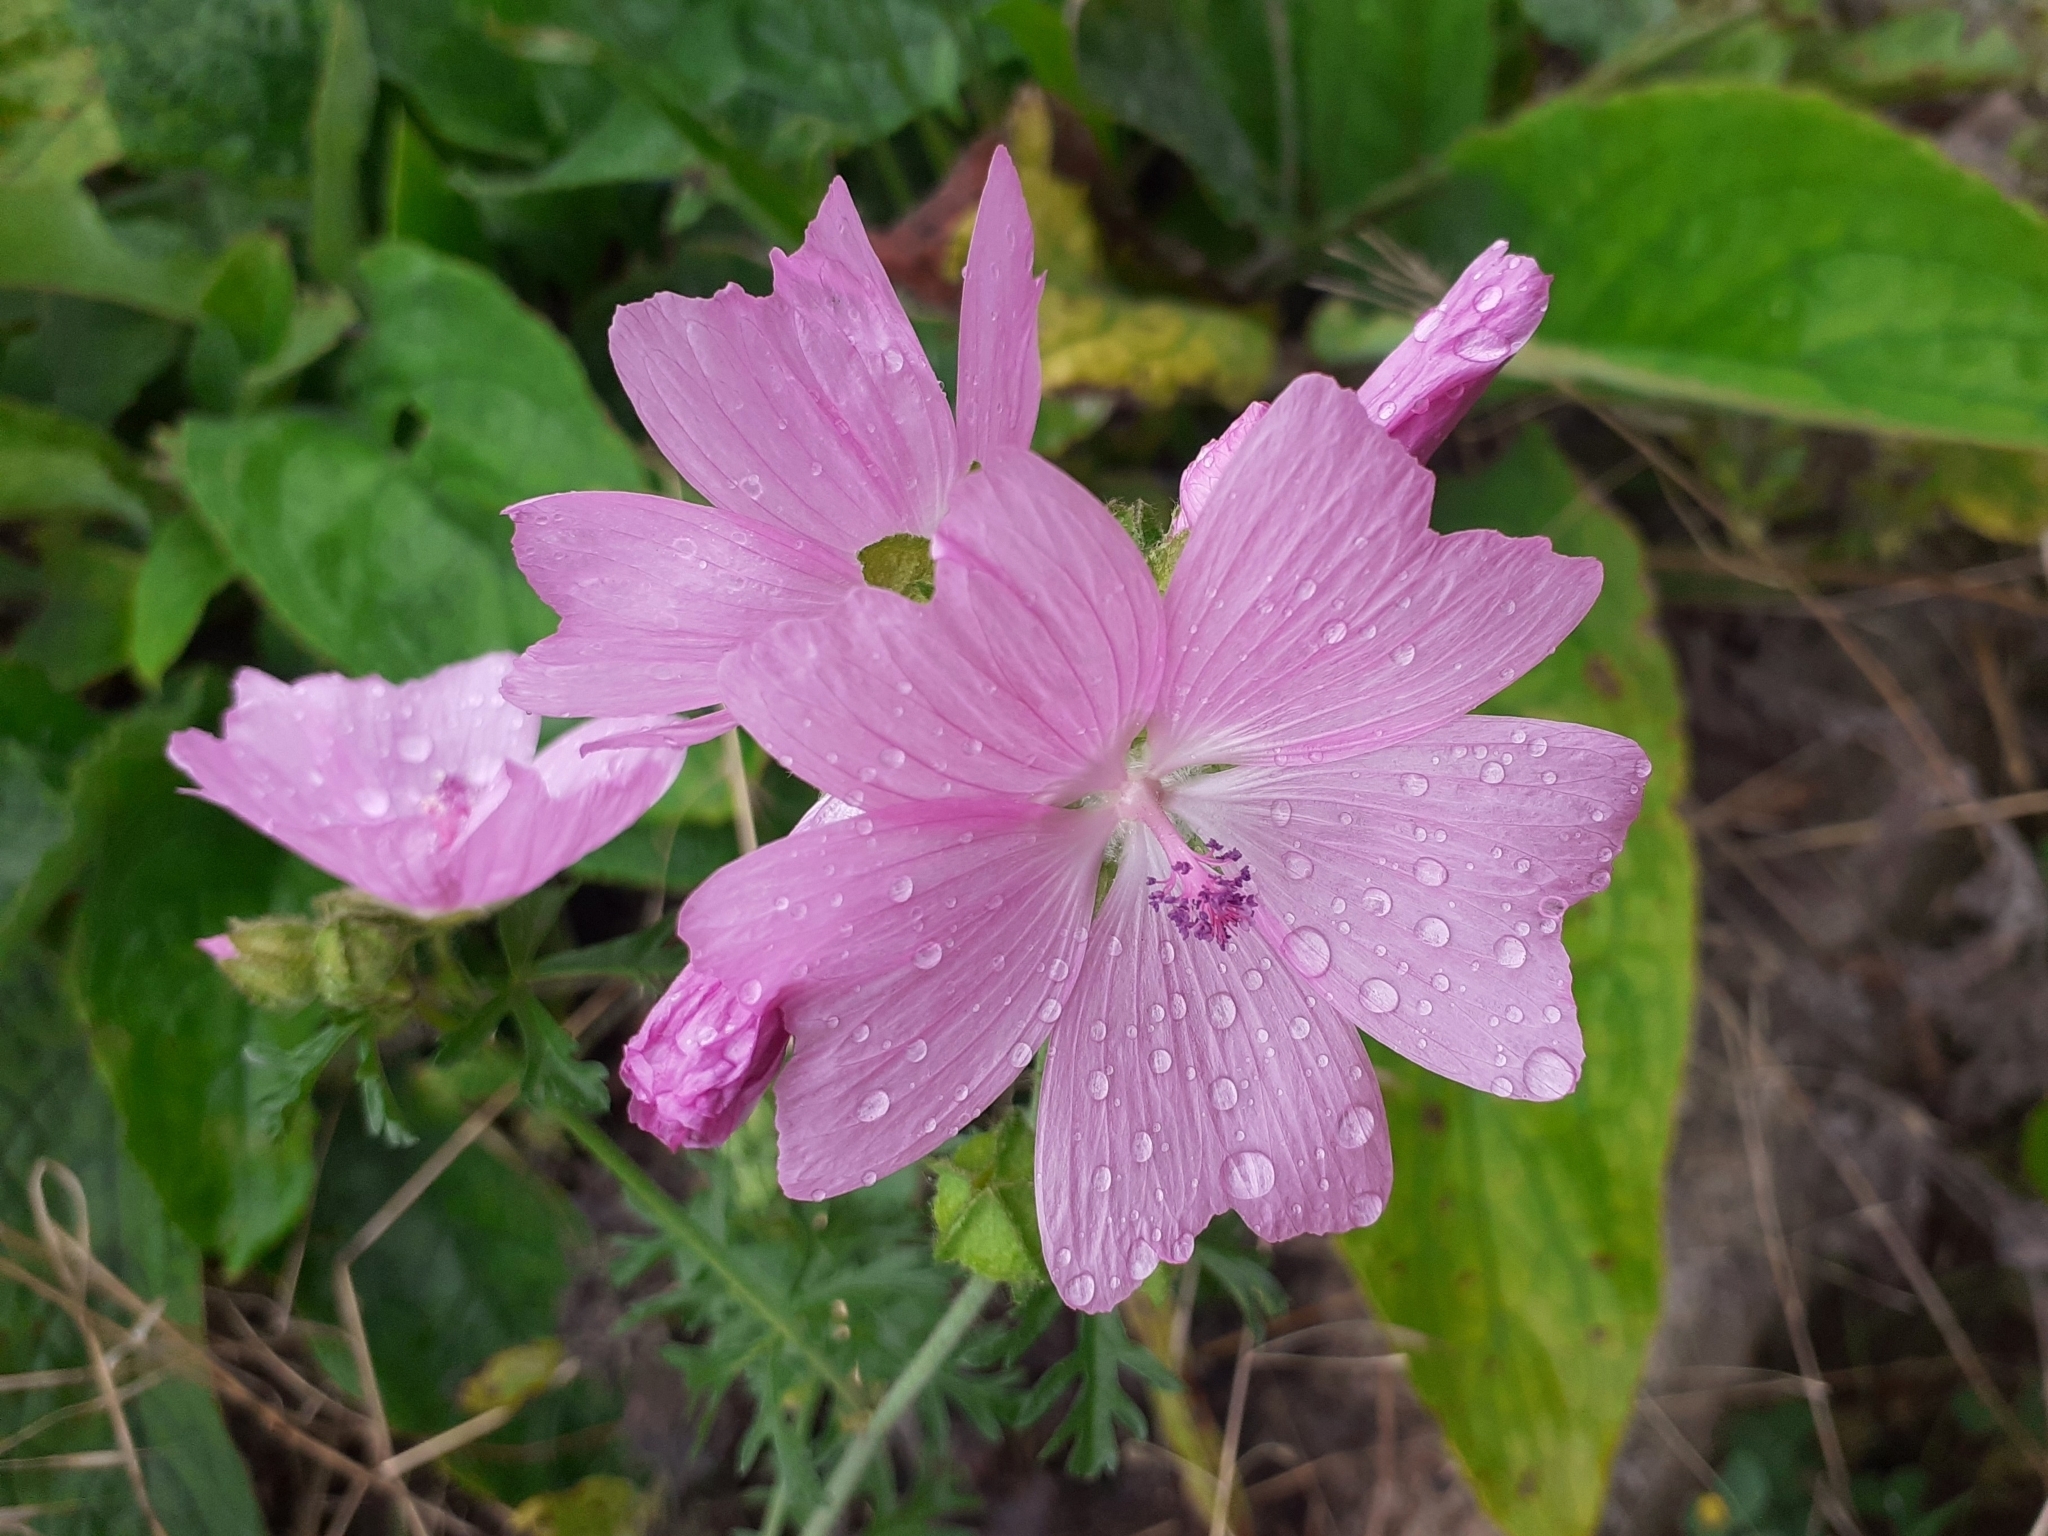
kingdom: Plantae
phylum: Tracheophyta
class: Magnoliopsida
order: Malvales
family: Malvaceae
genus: Malva
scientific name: Malva moschata
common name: Musk mallow
